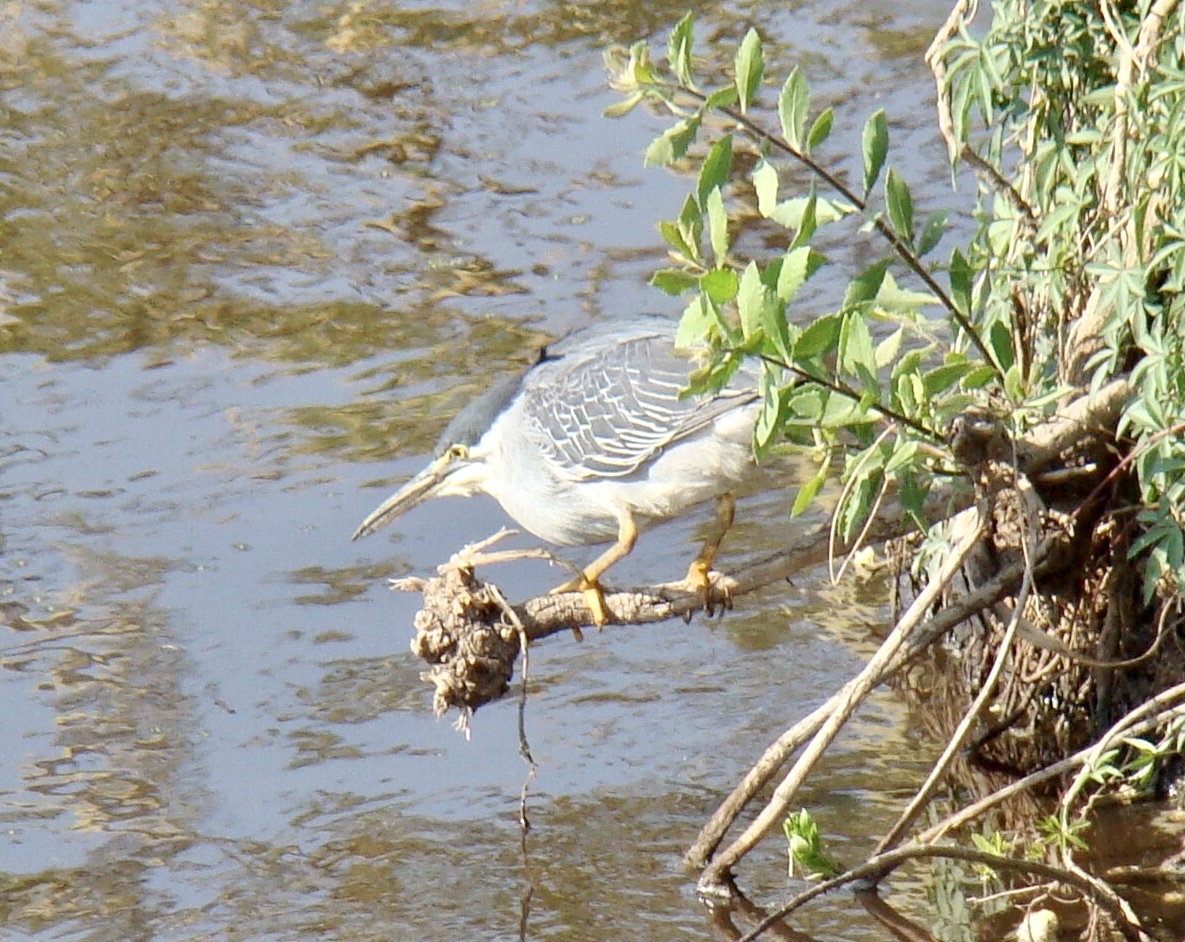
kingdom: Animalia
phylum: Chordata
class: Aves
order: Pelecaniformes
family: Ardeidae
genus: Butorides
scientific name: Butorides striata
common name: Striated heron
